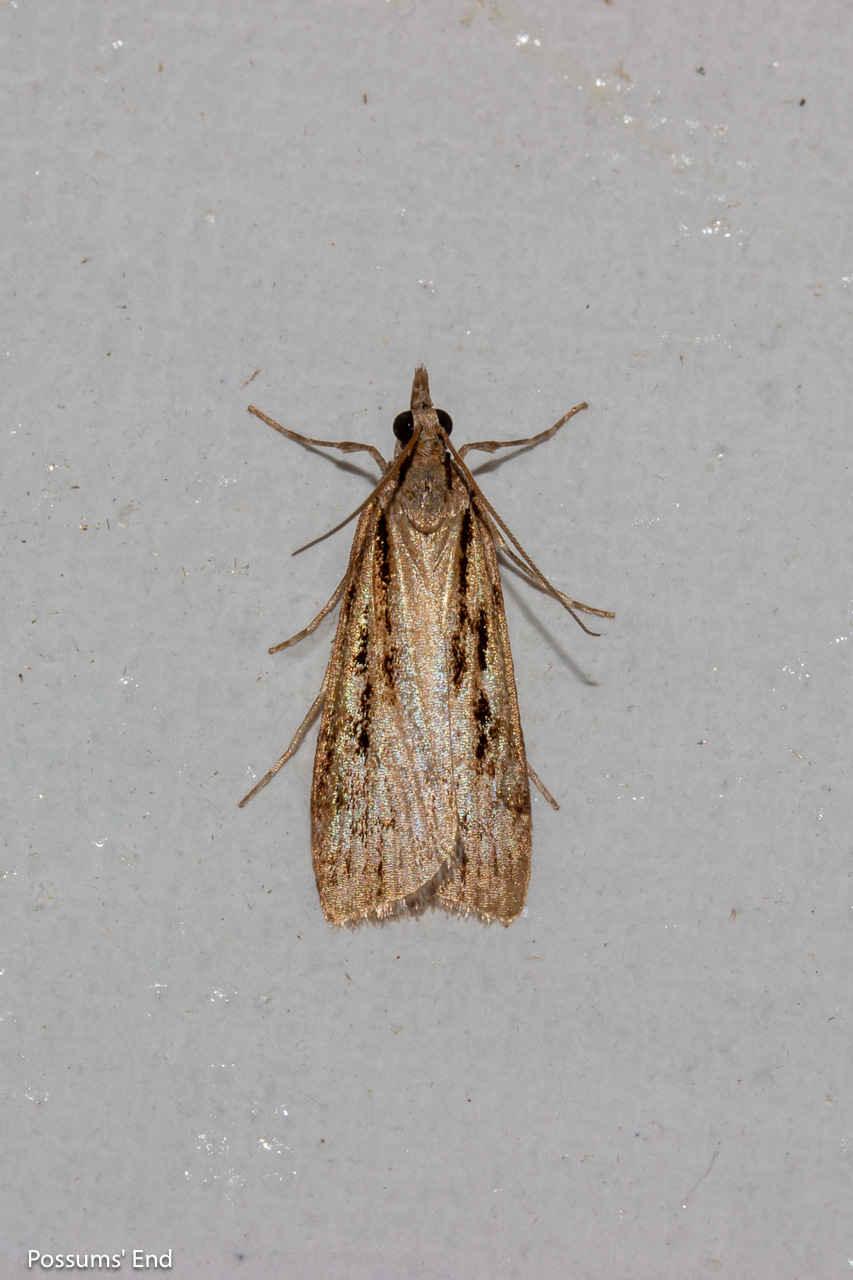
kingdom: Animalia
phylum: Arthropoda
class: Insecta
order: Lepidoptera
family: Crambidae
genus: Eudonia
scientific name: Eudonia sabulosella
